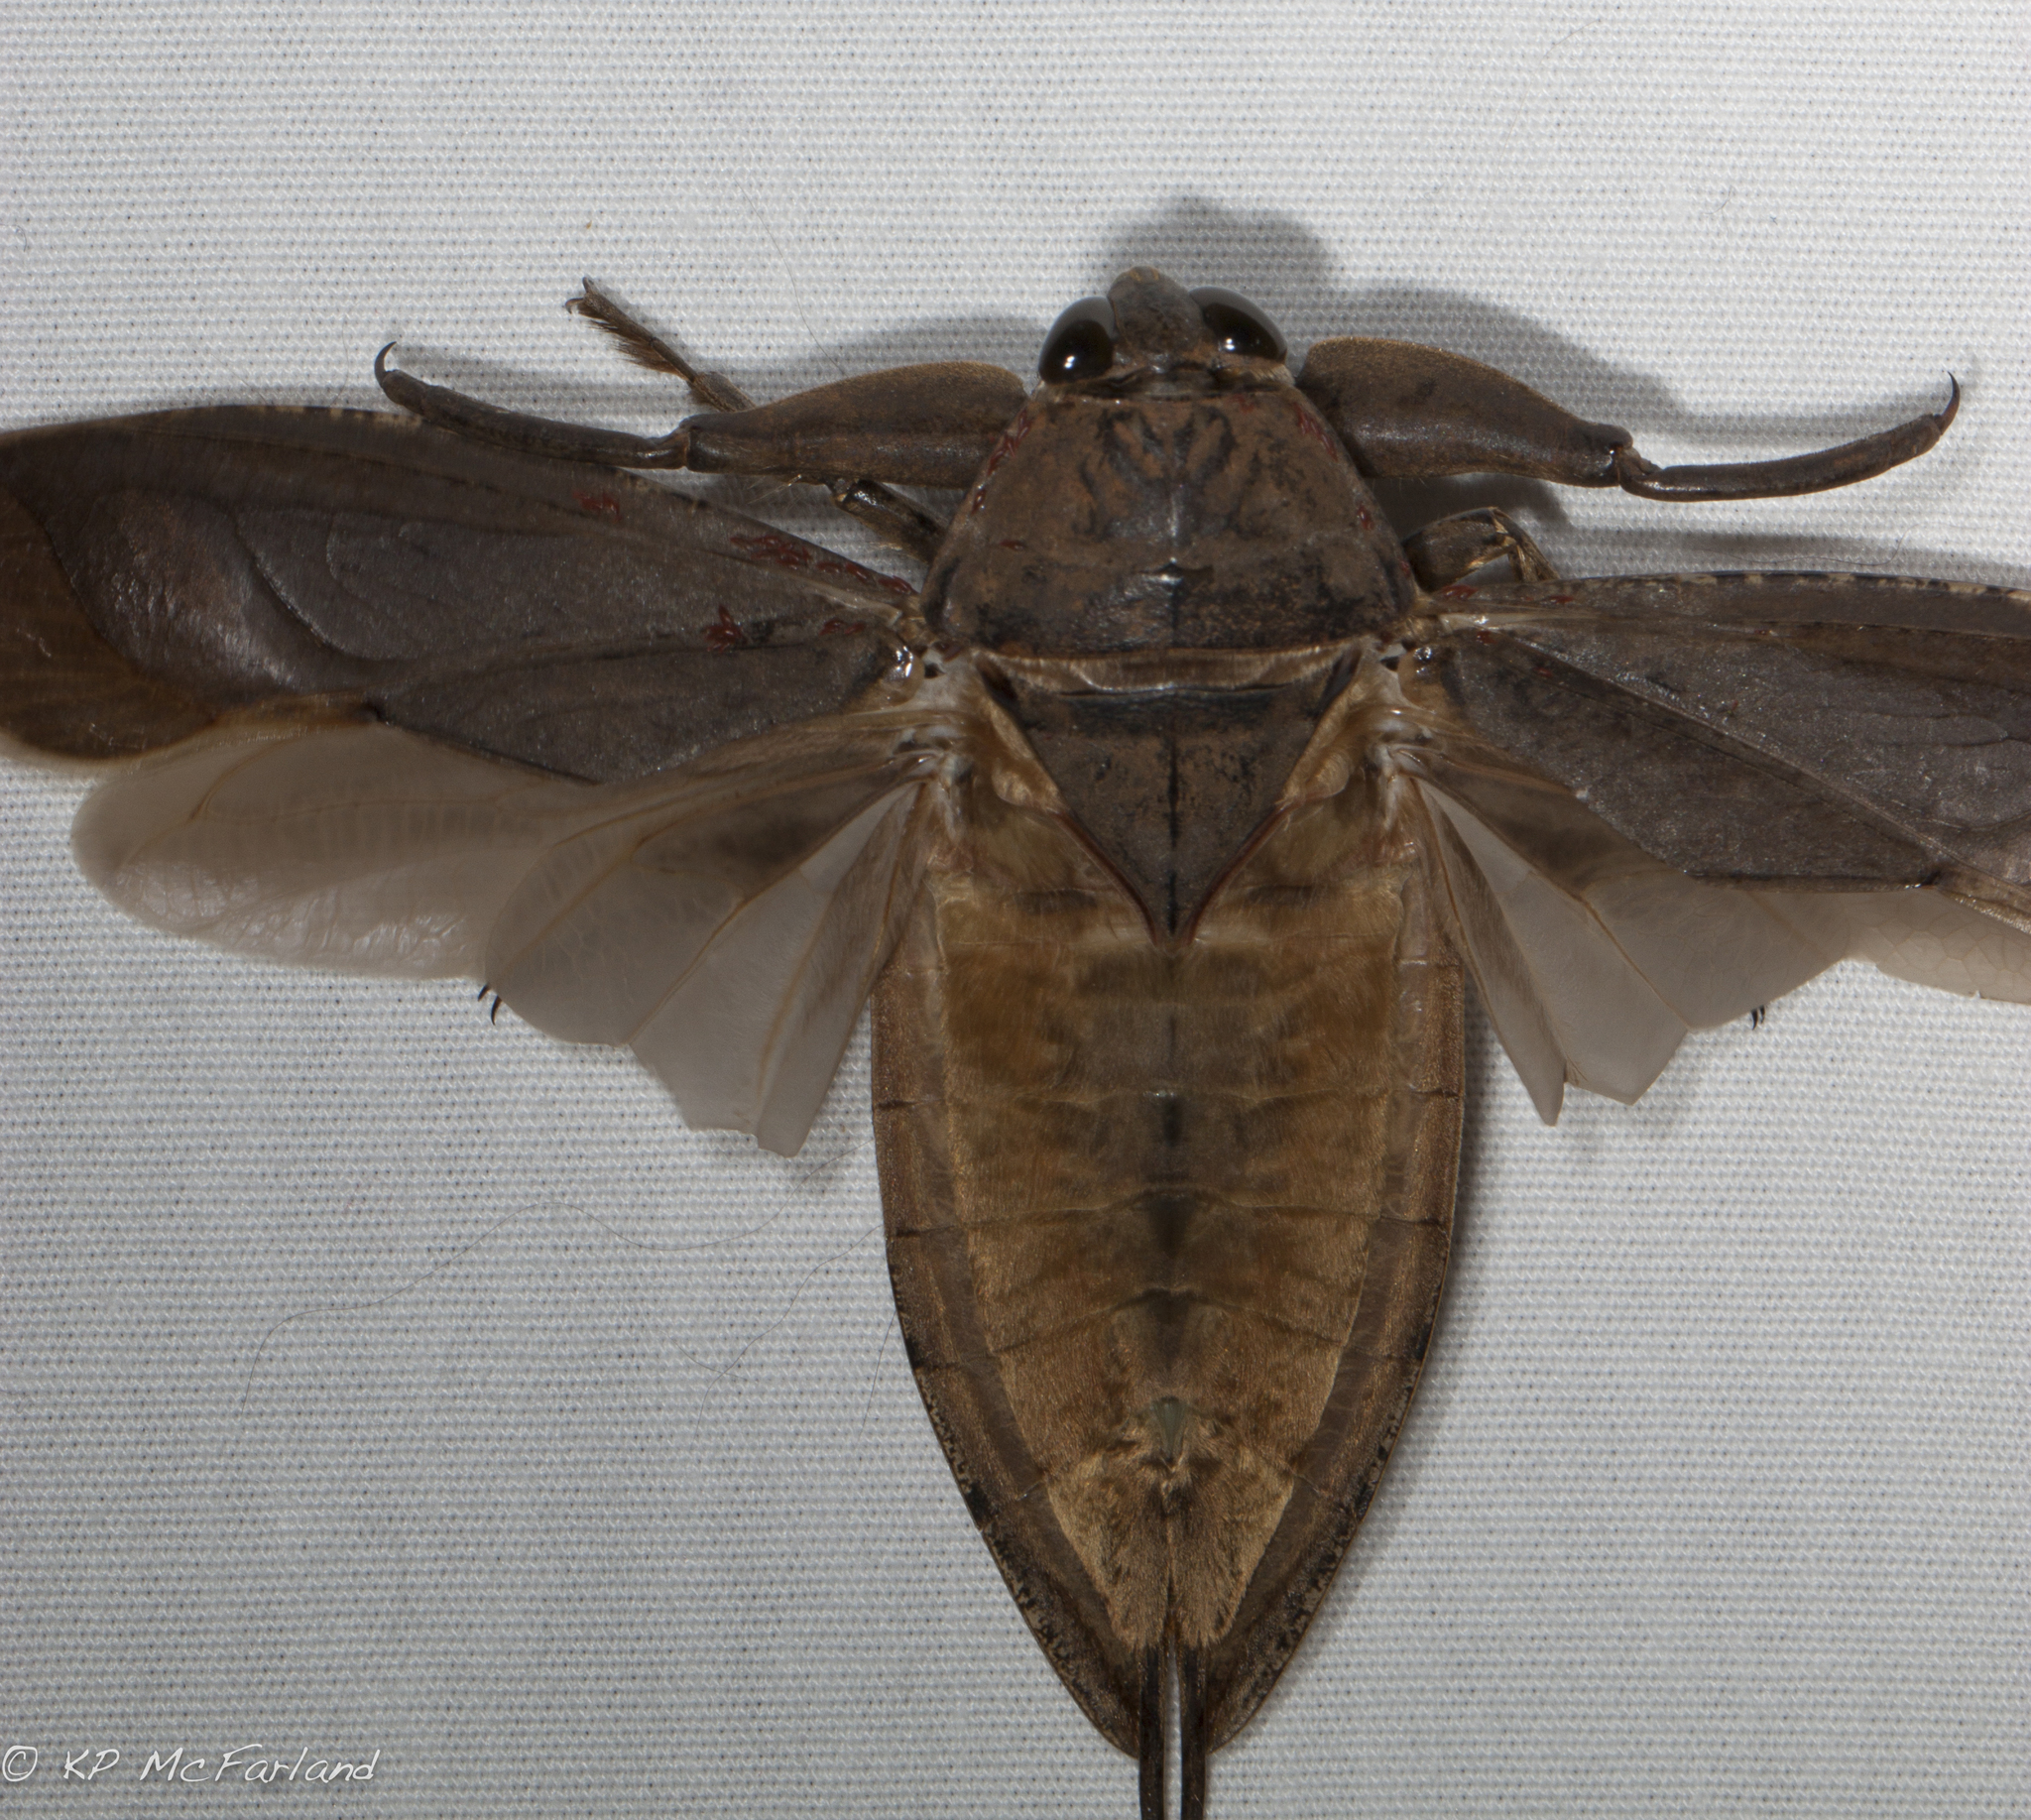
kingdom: Animalia
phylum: Arthropoda
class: Insecta
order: Hemiptera
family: Belostomatidae
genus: Lethocerus
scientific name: Lethocerus americanus
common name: Giant water bug
